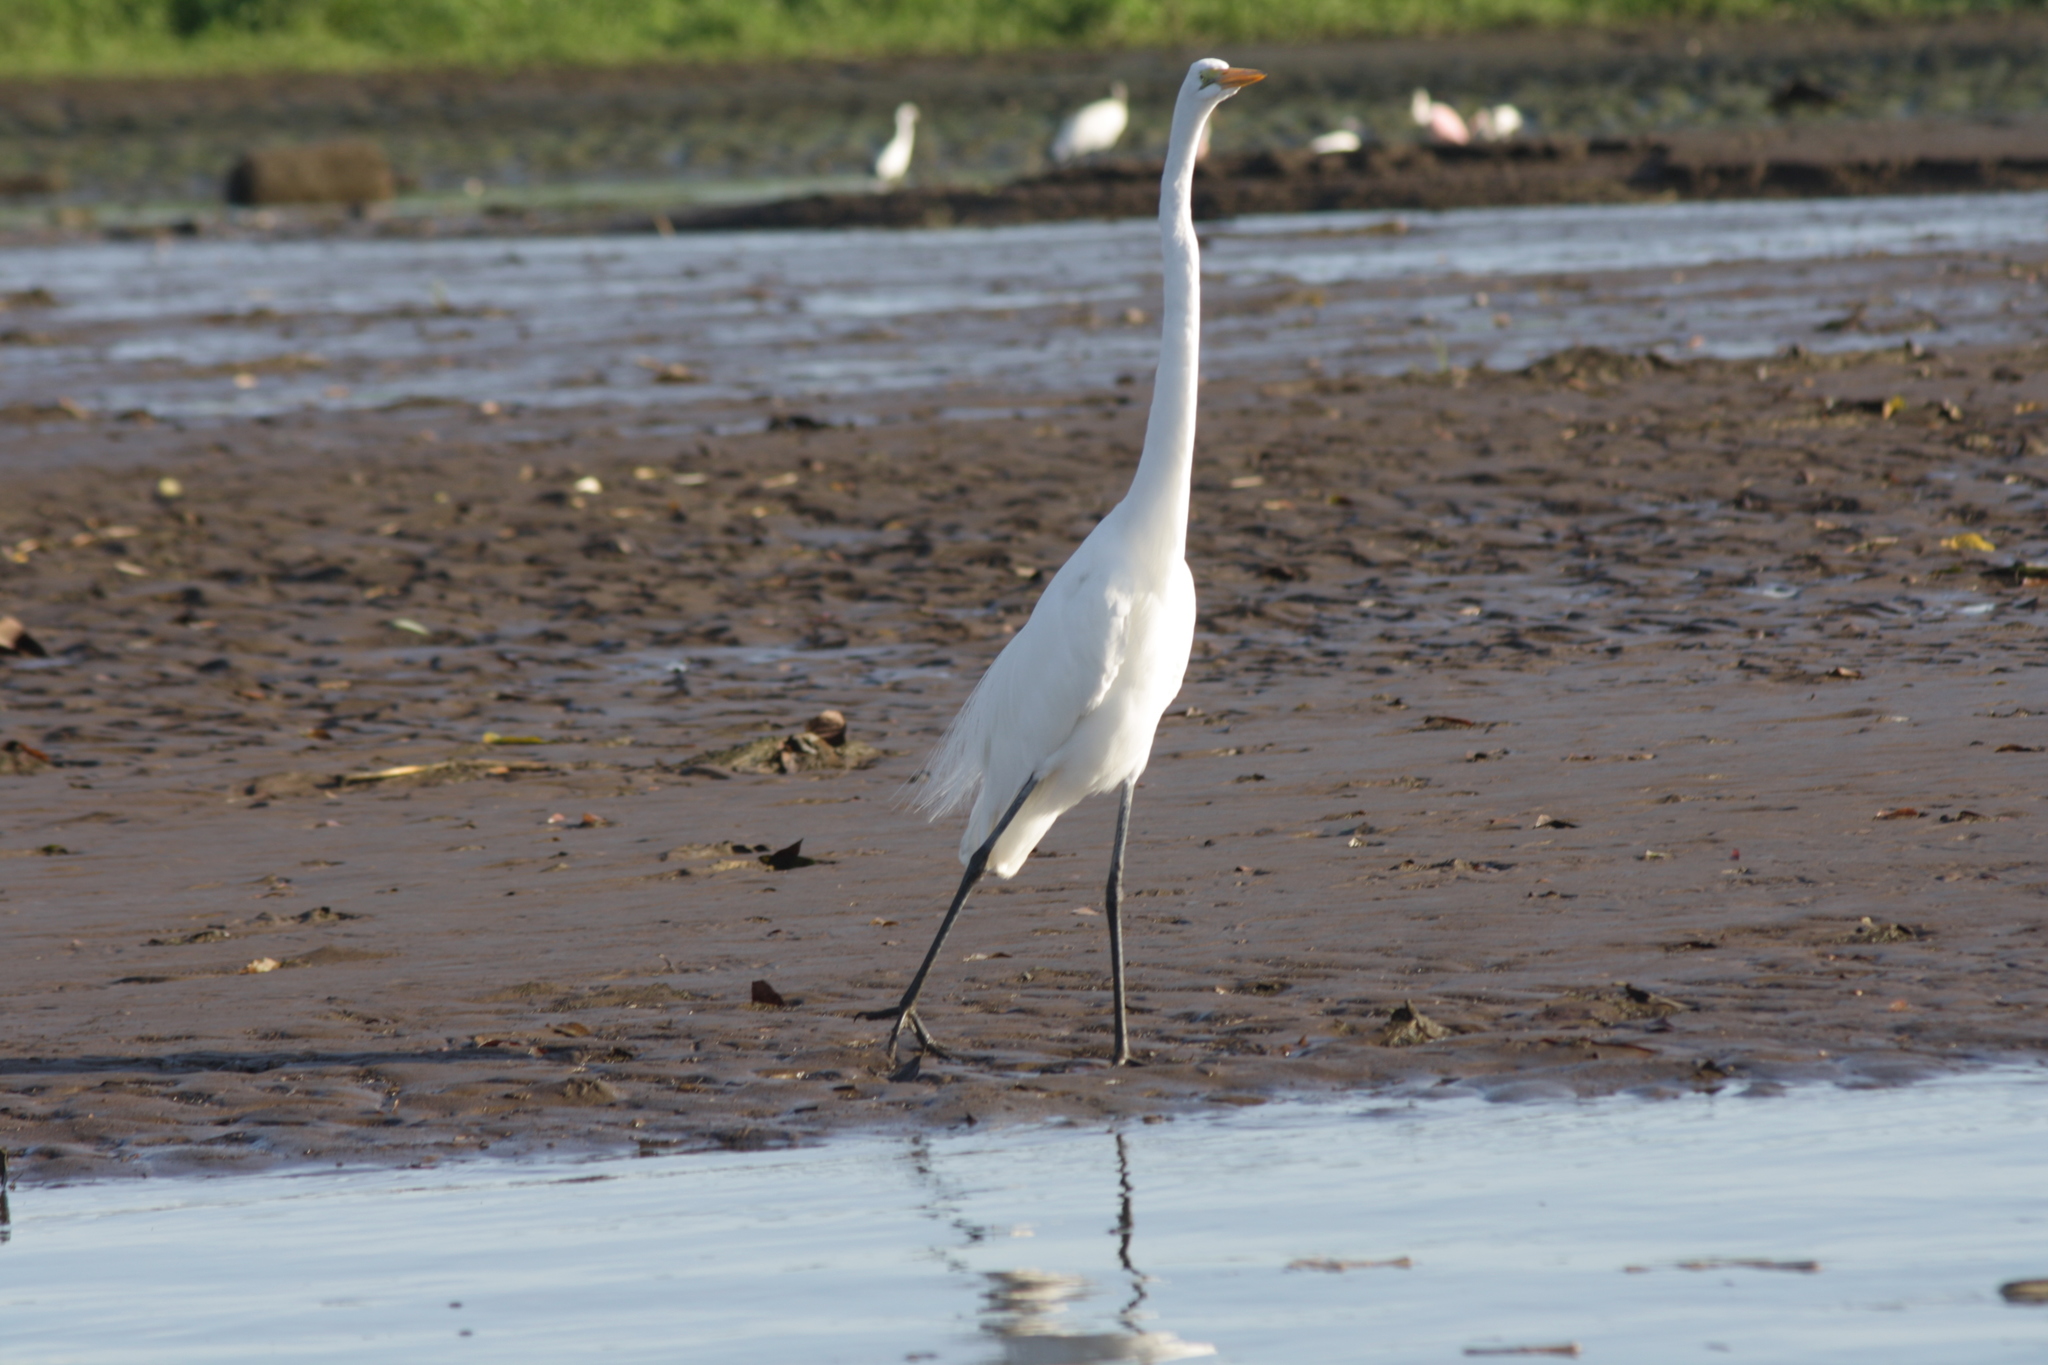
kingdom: Animalia
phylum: Chordata
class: Aves
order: Pelecaniformes
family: Ardeidae
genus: Ardea
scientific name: Ardea alba
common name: Great egret
